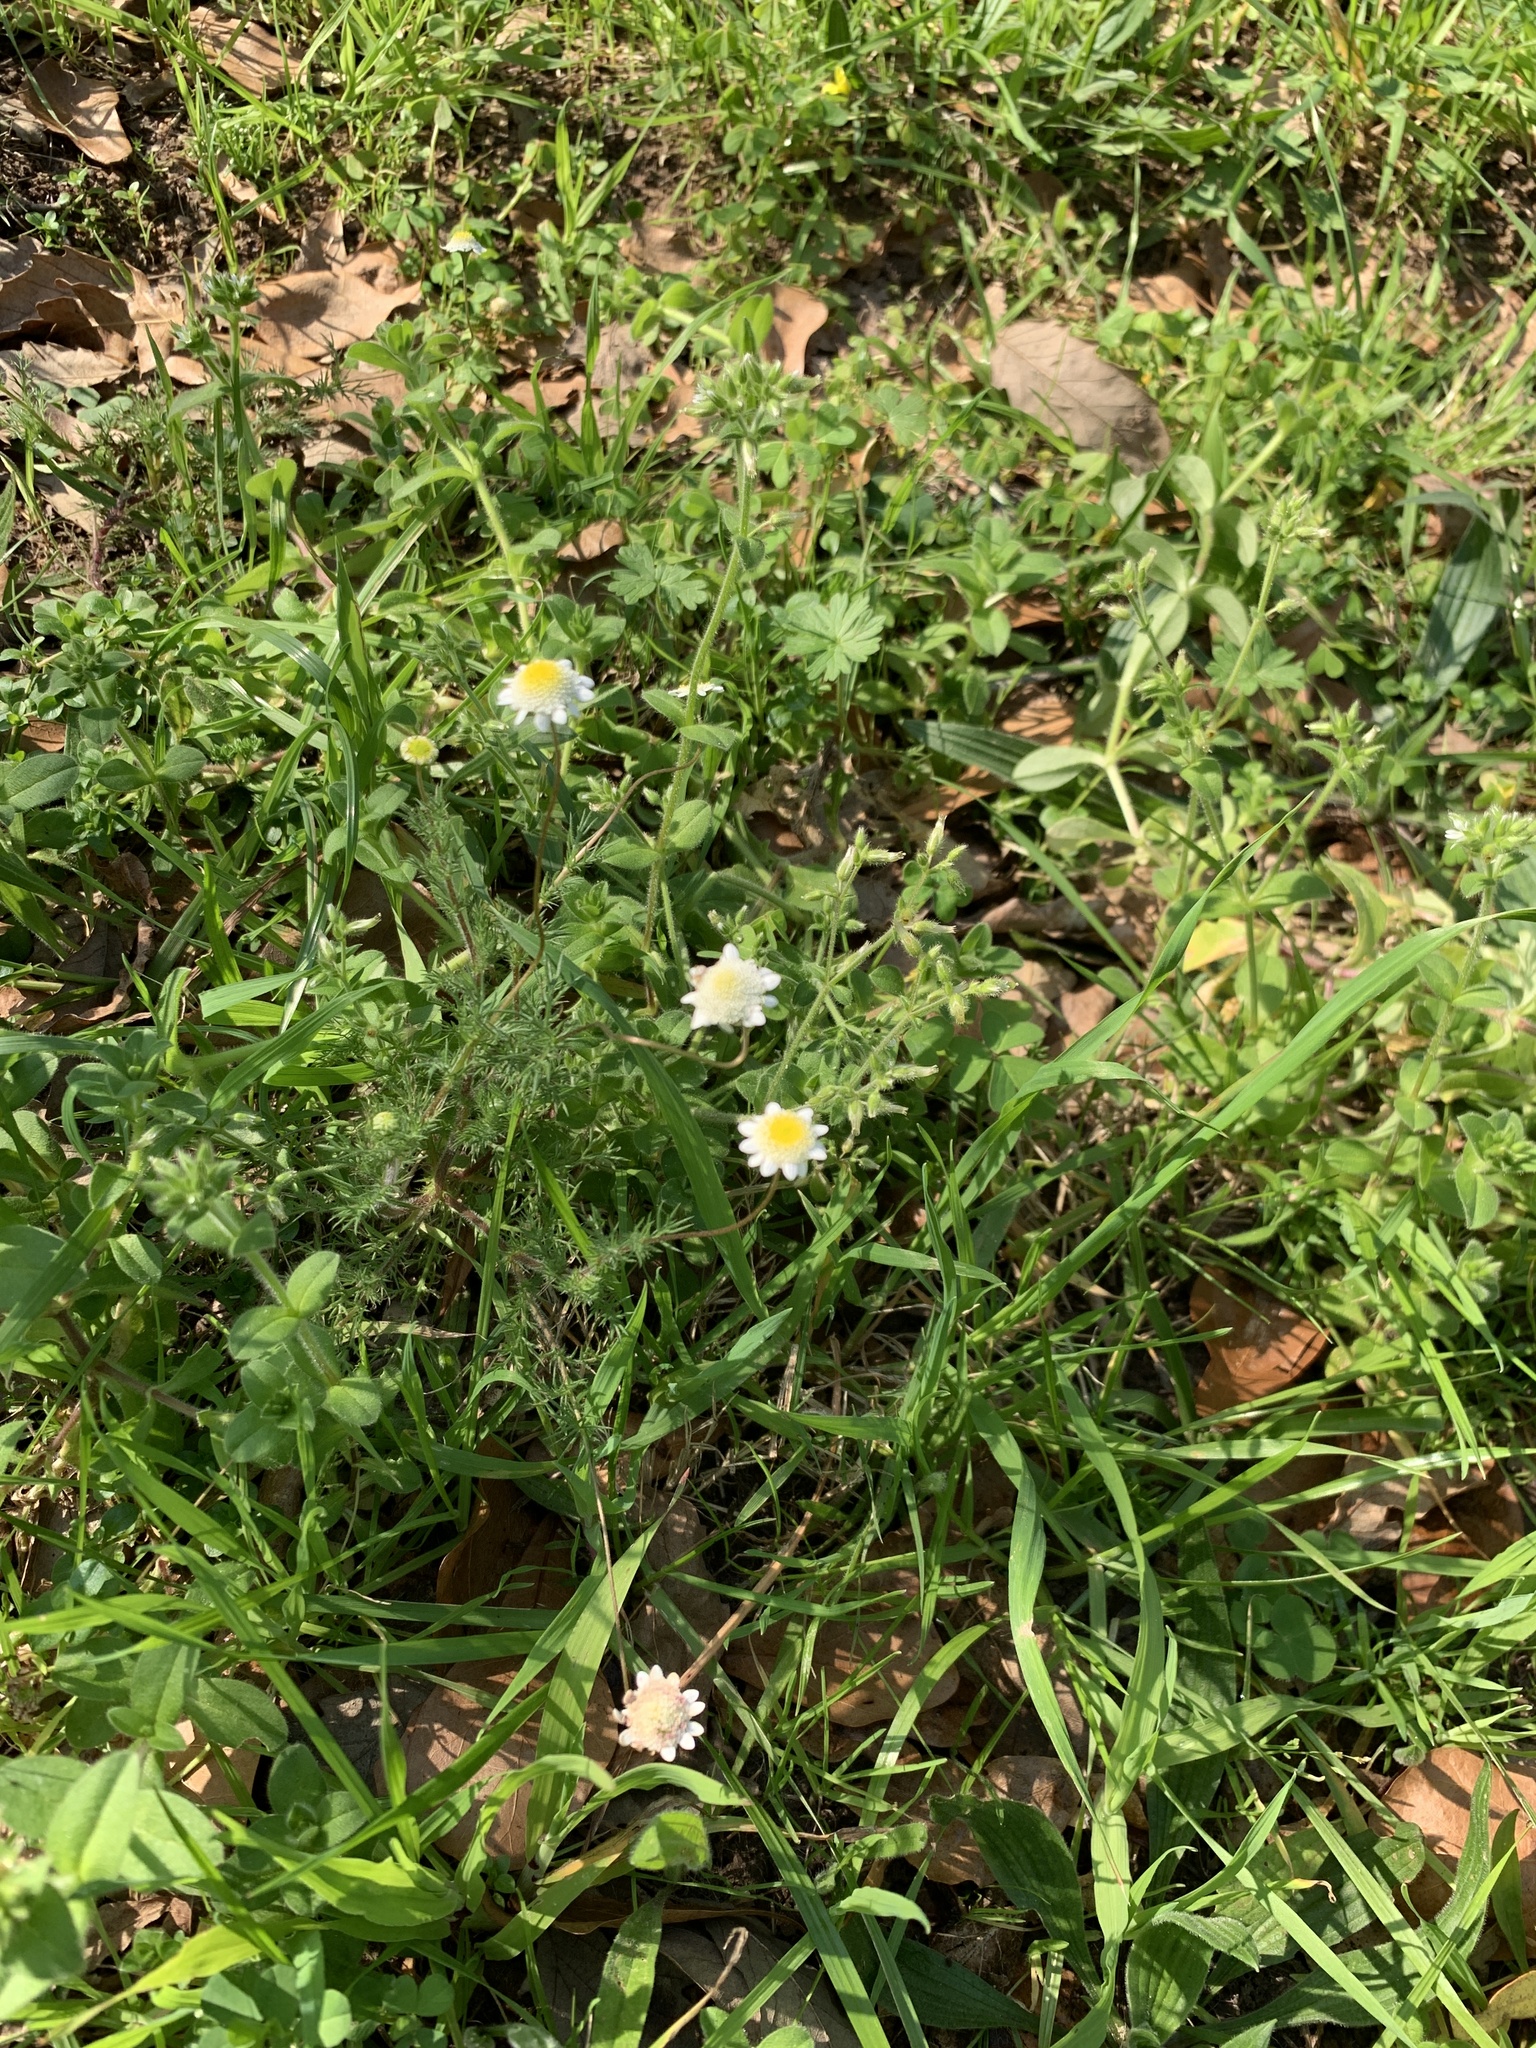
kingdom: Plantae
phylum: Tracheophyta
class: Magnoliopsida
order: Asterales
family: Asteraceae
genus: Cotula
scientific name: Cotula turbinata
